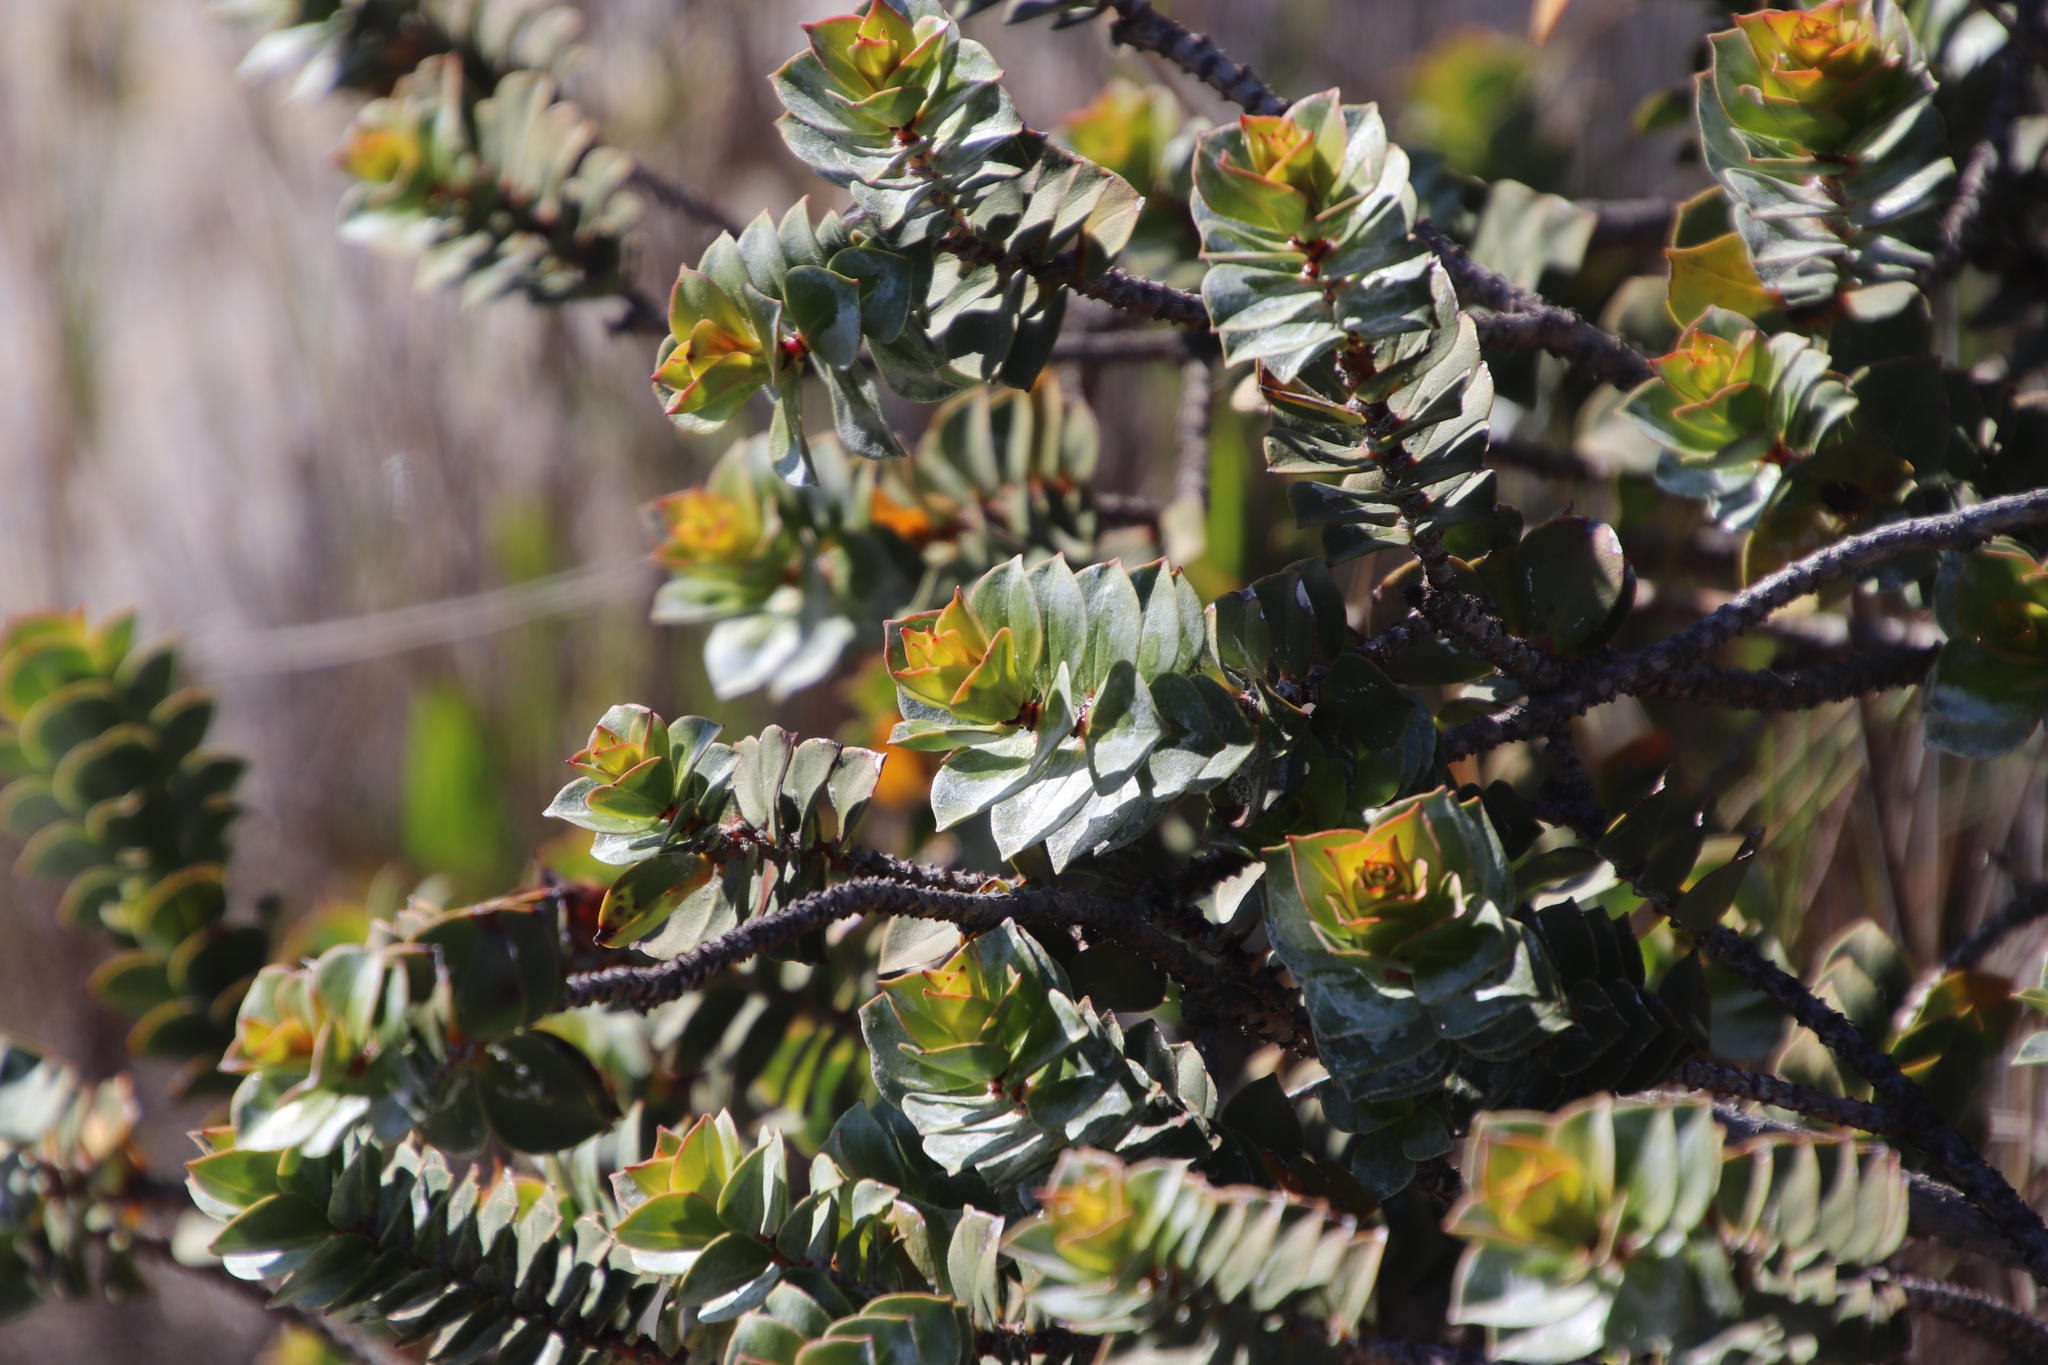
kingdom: Plantae
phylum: Tracheophyta
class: Magnoliopsida
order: Myrtales
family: Penaeaceae
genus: Saltera
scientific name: Saltera sarcocolla
